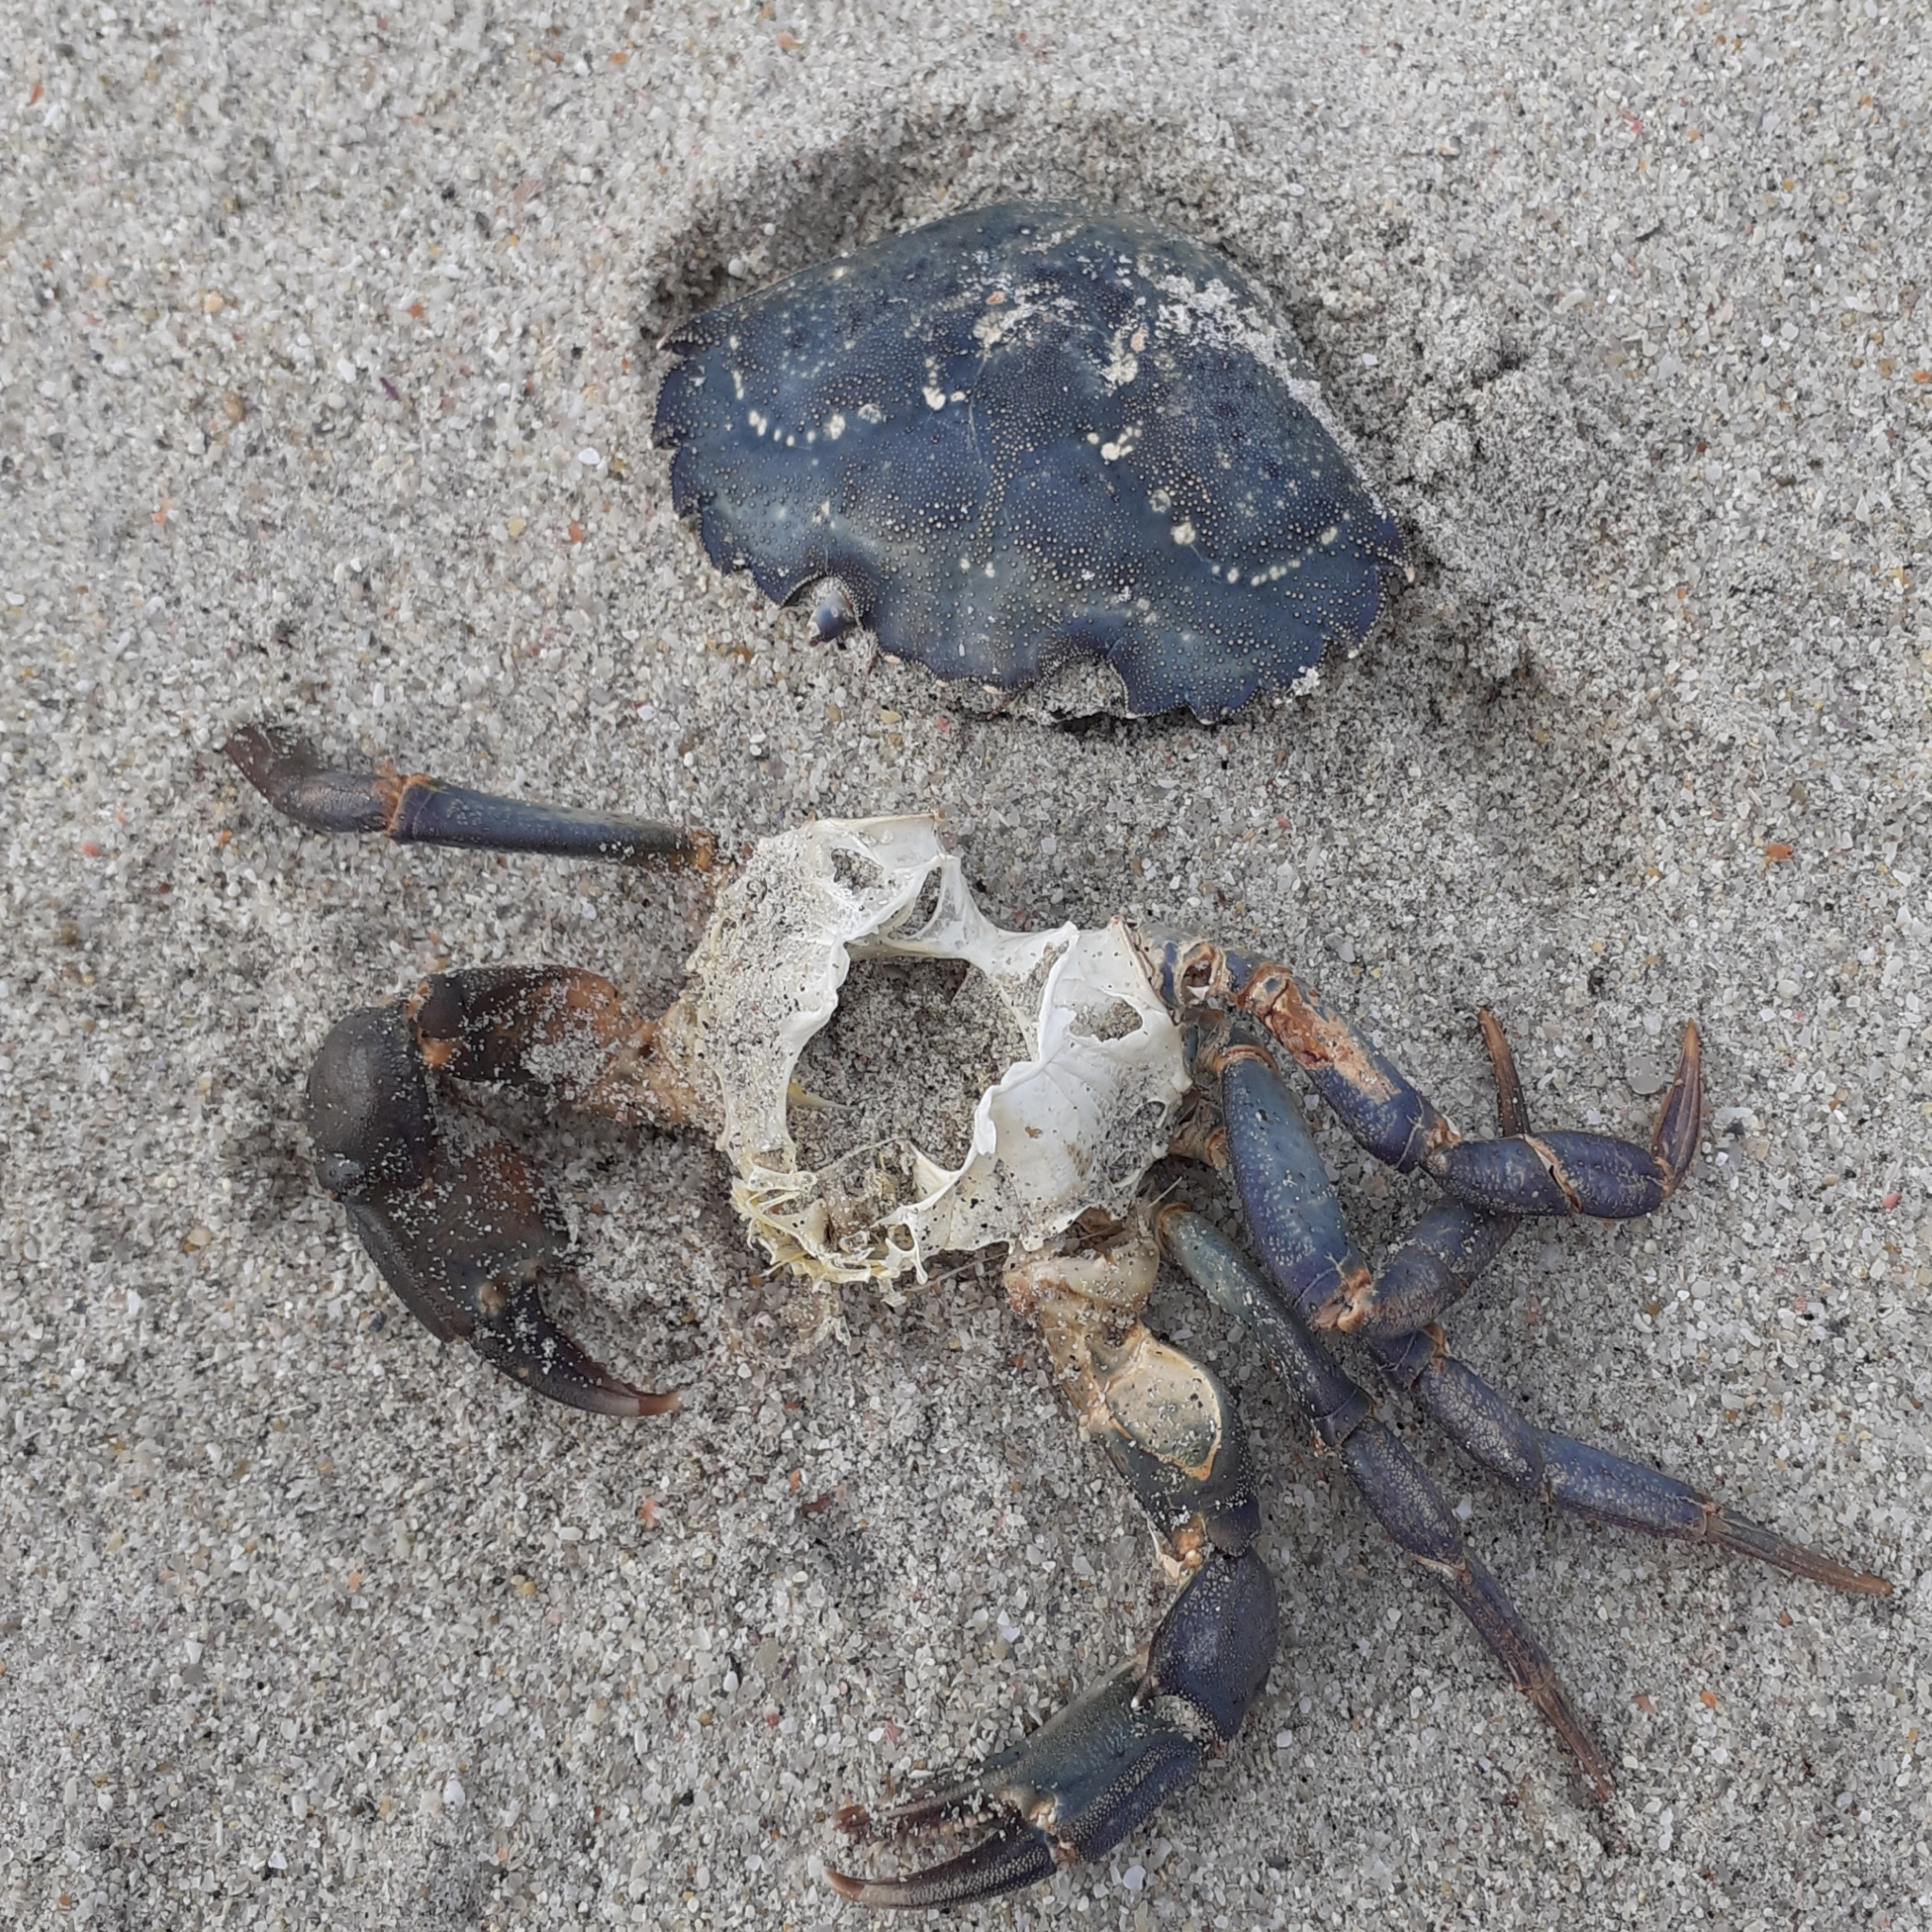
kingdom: Animalia
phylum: Arthropoda
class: Malacostraca
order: Decapoda
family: Carcinidae
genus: Carcinus
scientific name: Carcinus maenas
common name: European green crab
